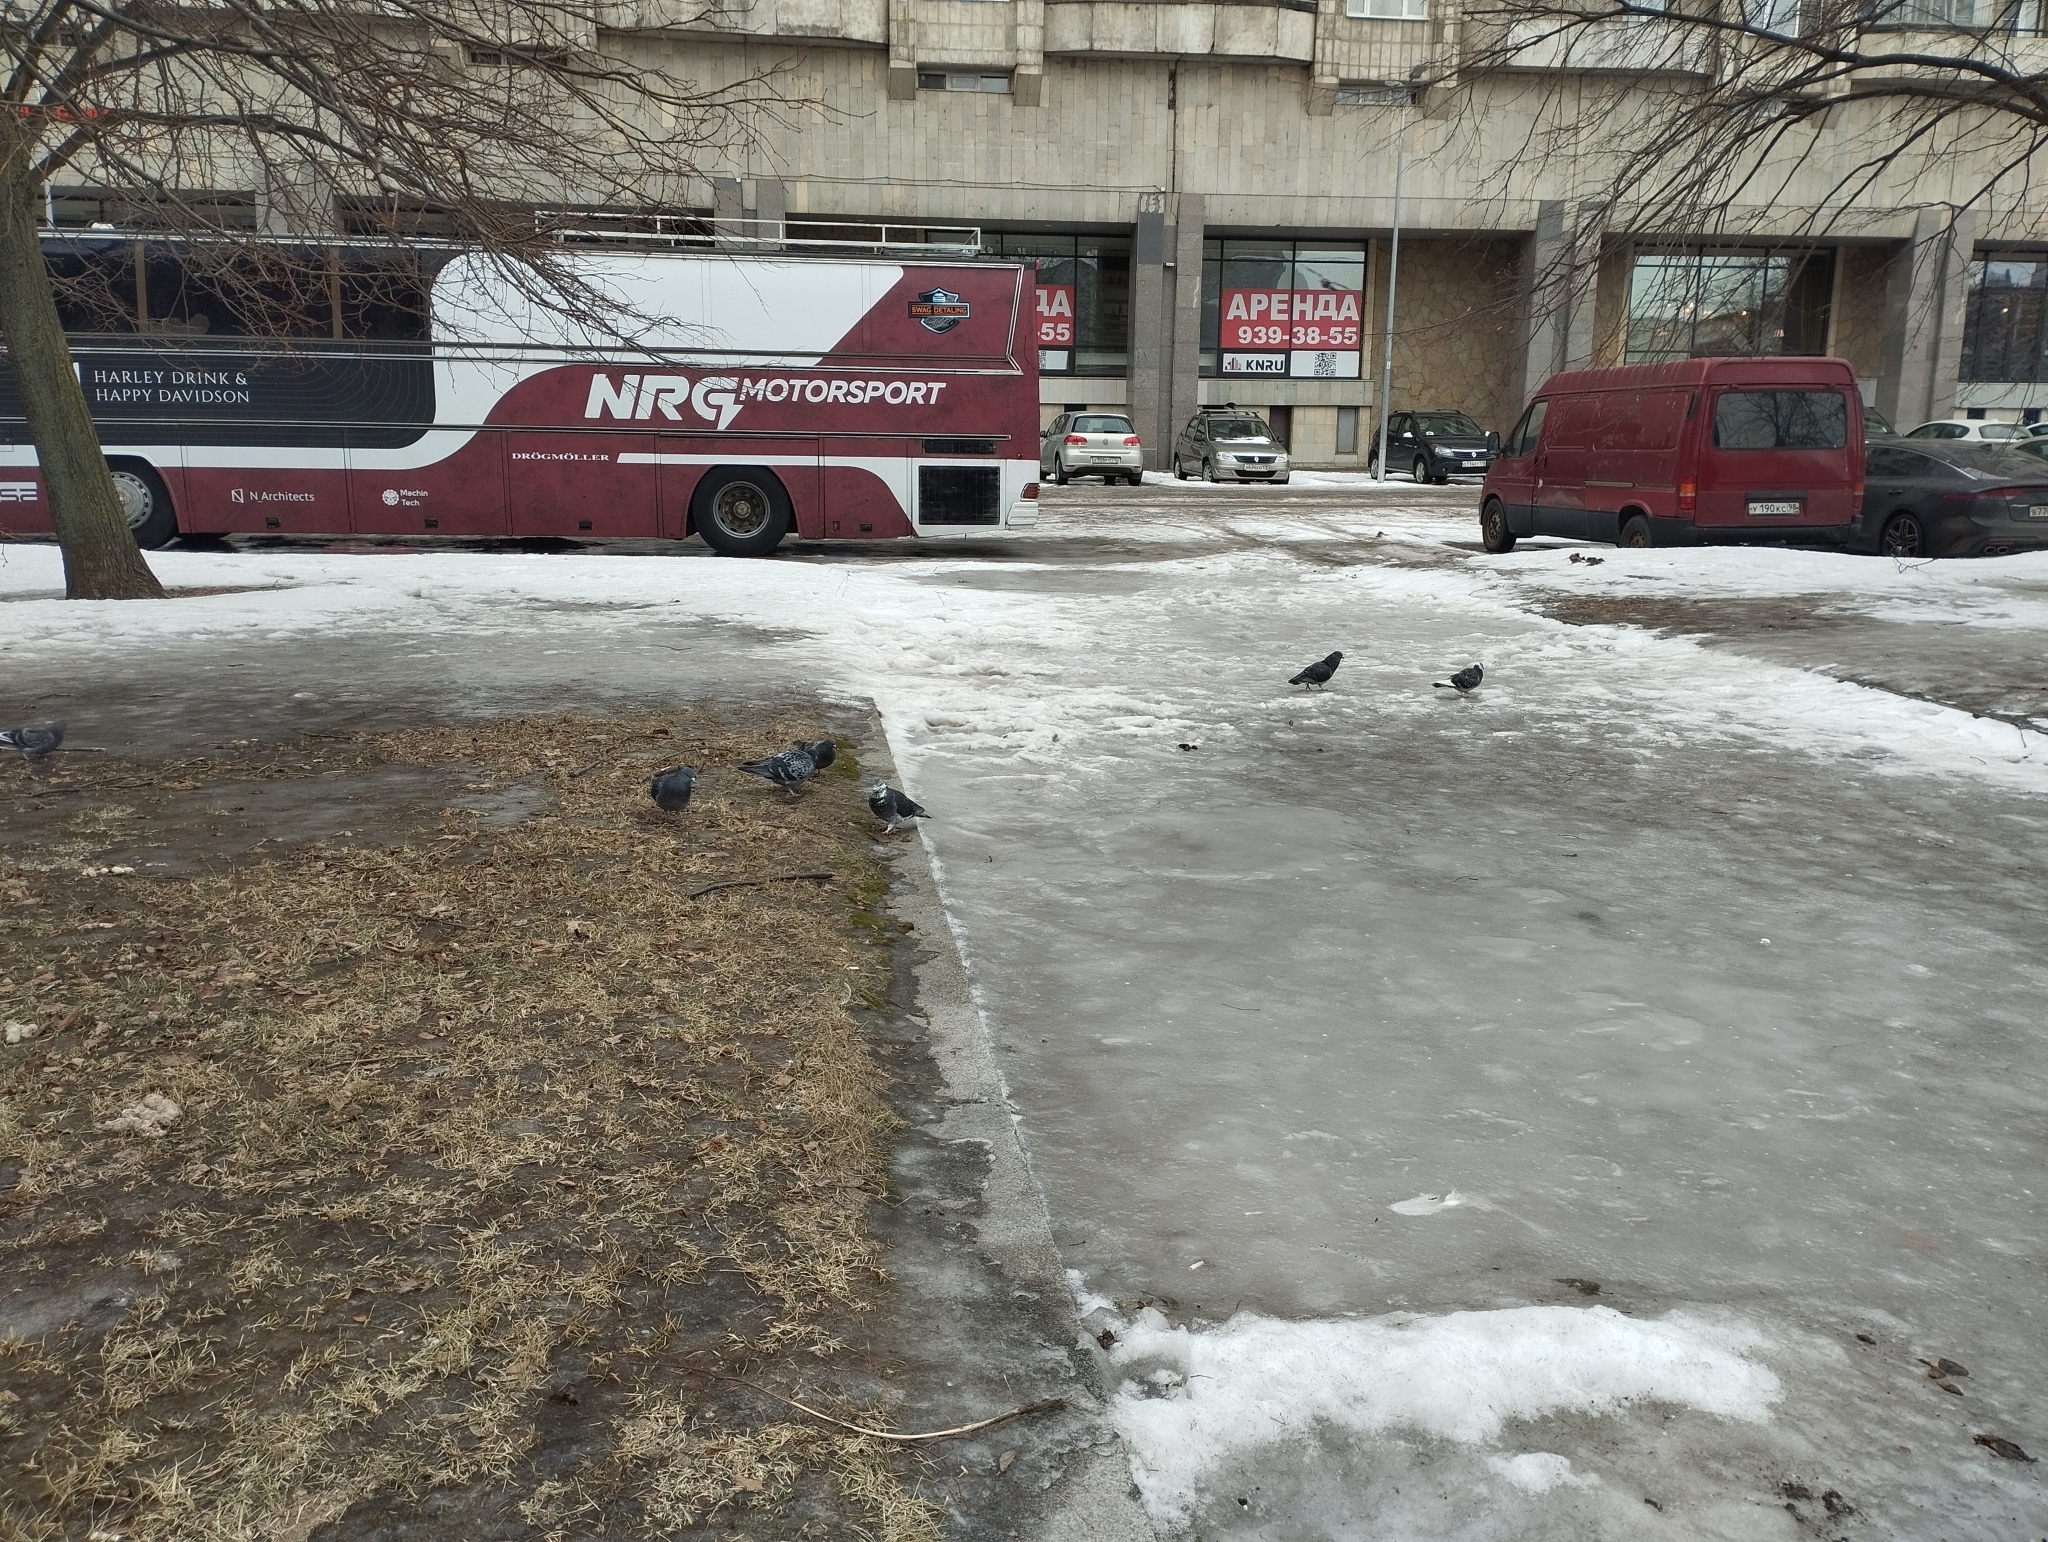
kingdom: Animalia
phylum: Chordata
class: Aves
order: Columbiformes
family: Columbidae
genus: Columba
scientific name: Columba livia
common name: Rock pigeon
